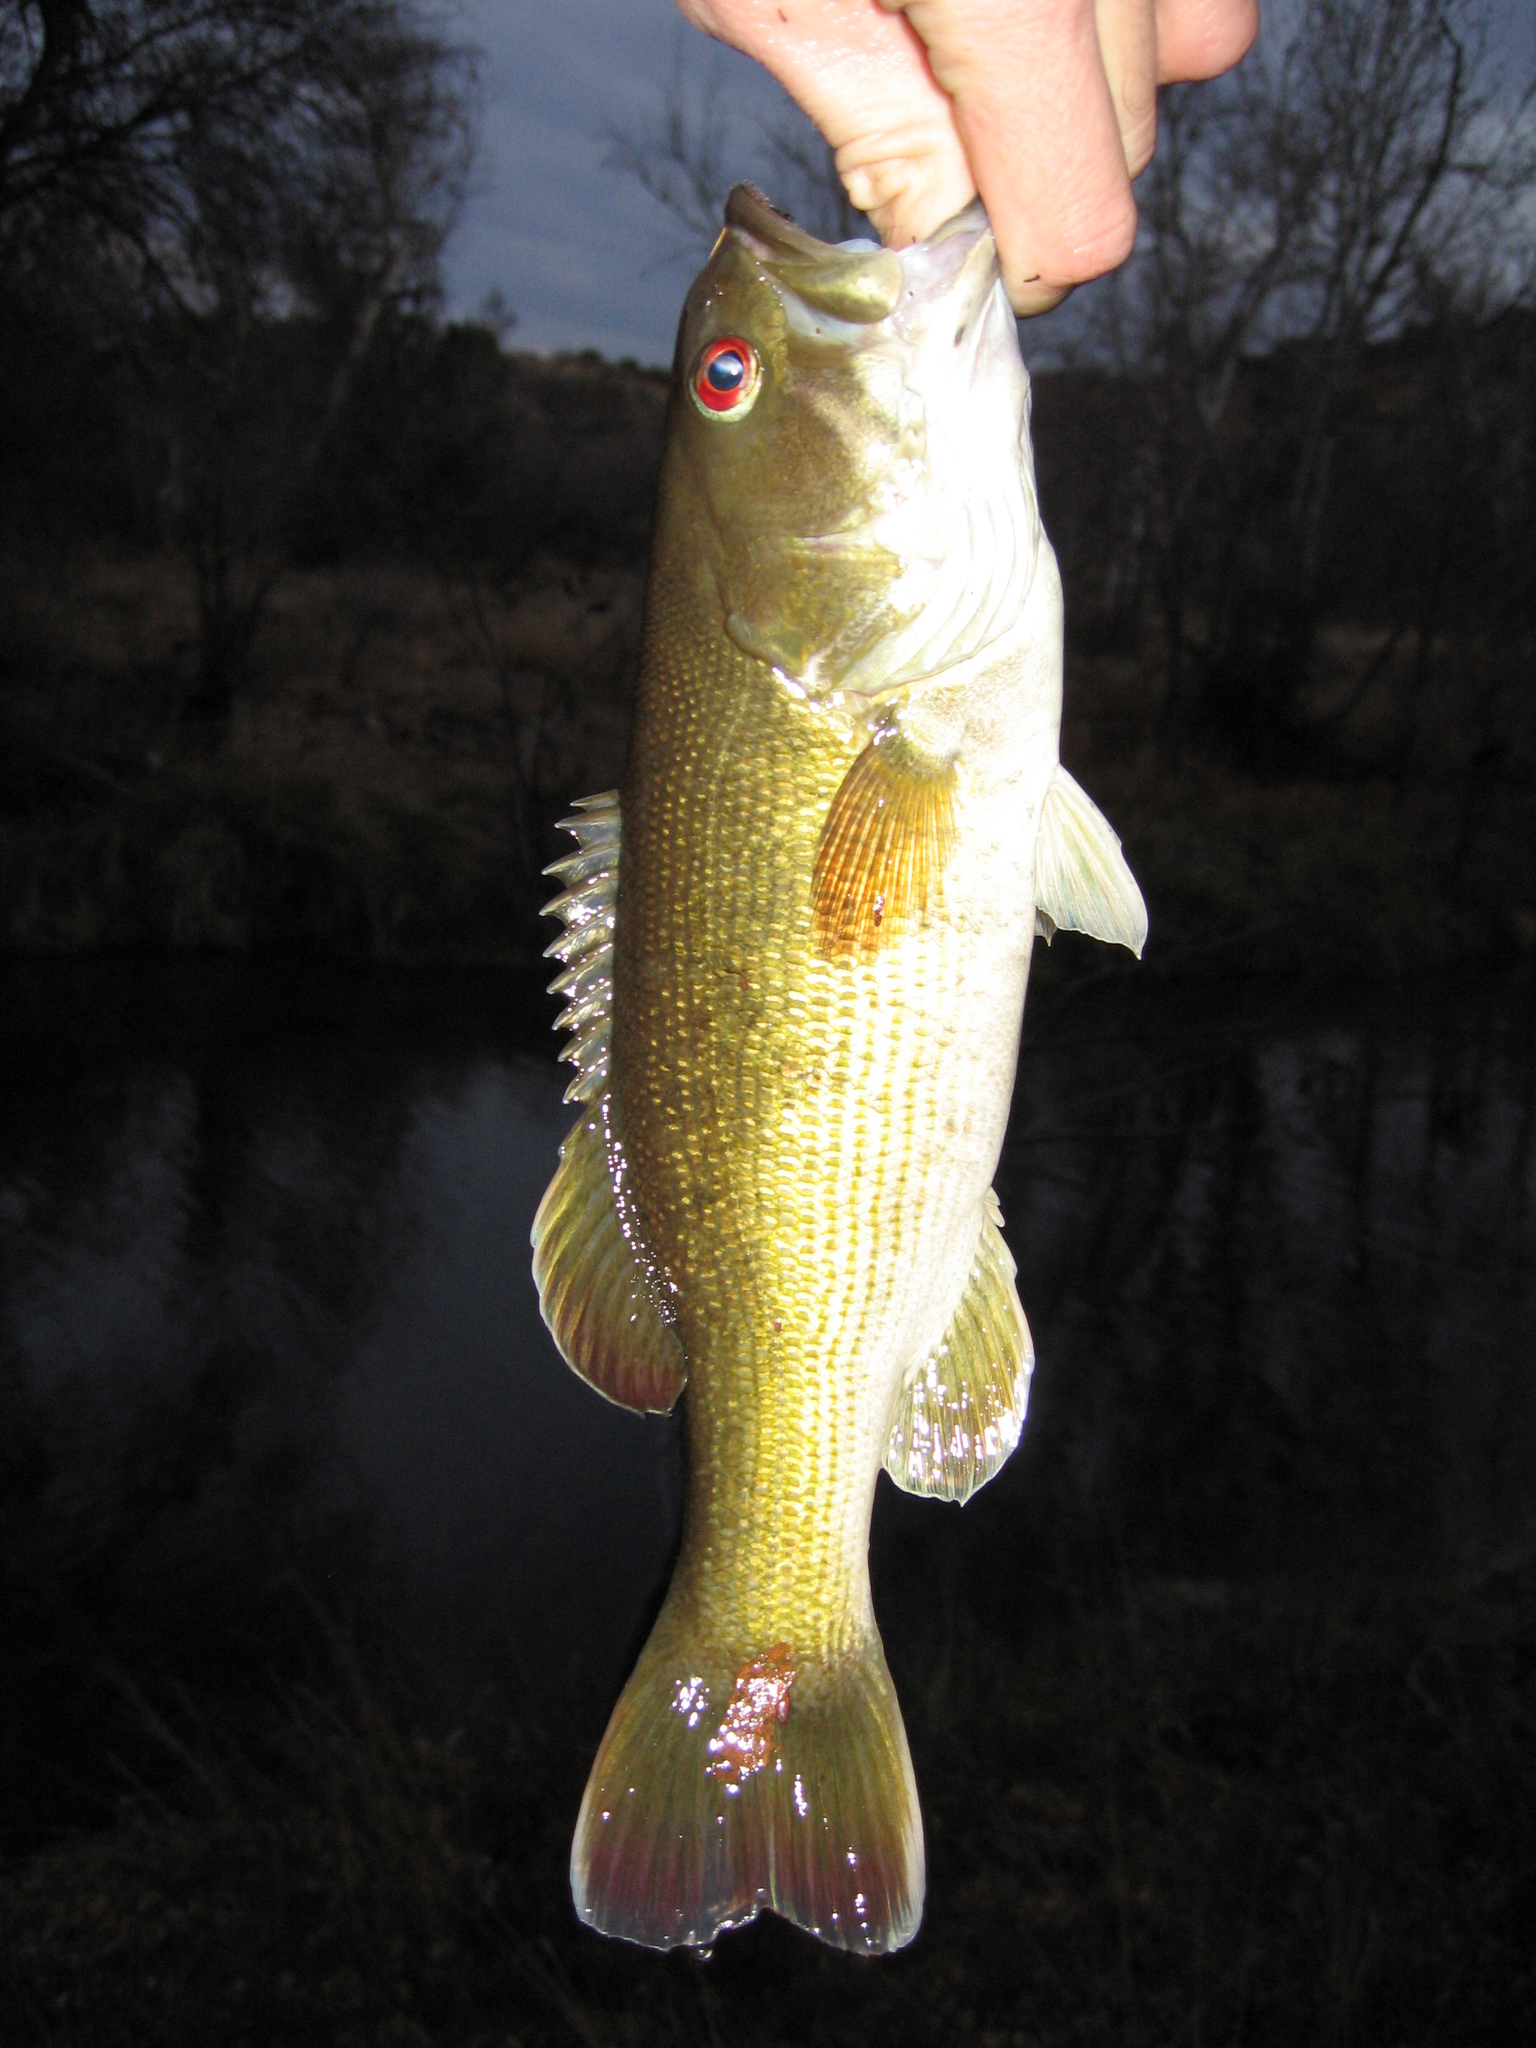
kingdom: Animalia
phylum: Chordata
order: Perciformes
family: Centrarchidae
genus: Micropterus
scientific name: Micropterus coosae
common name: Redeye bass
